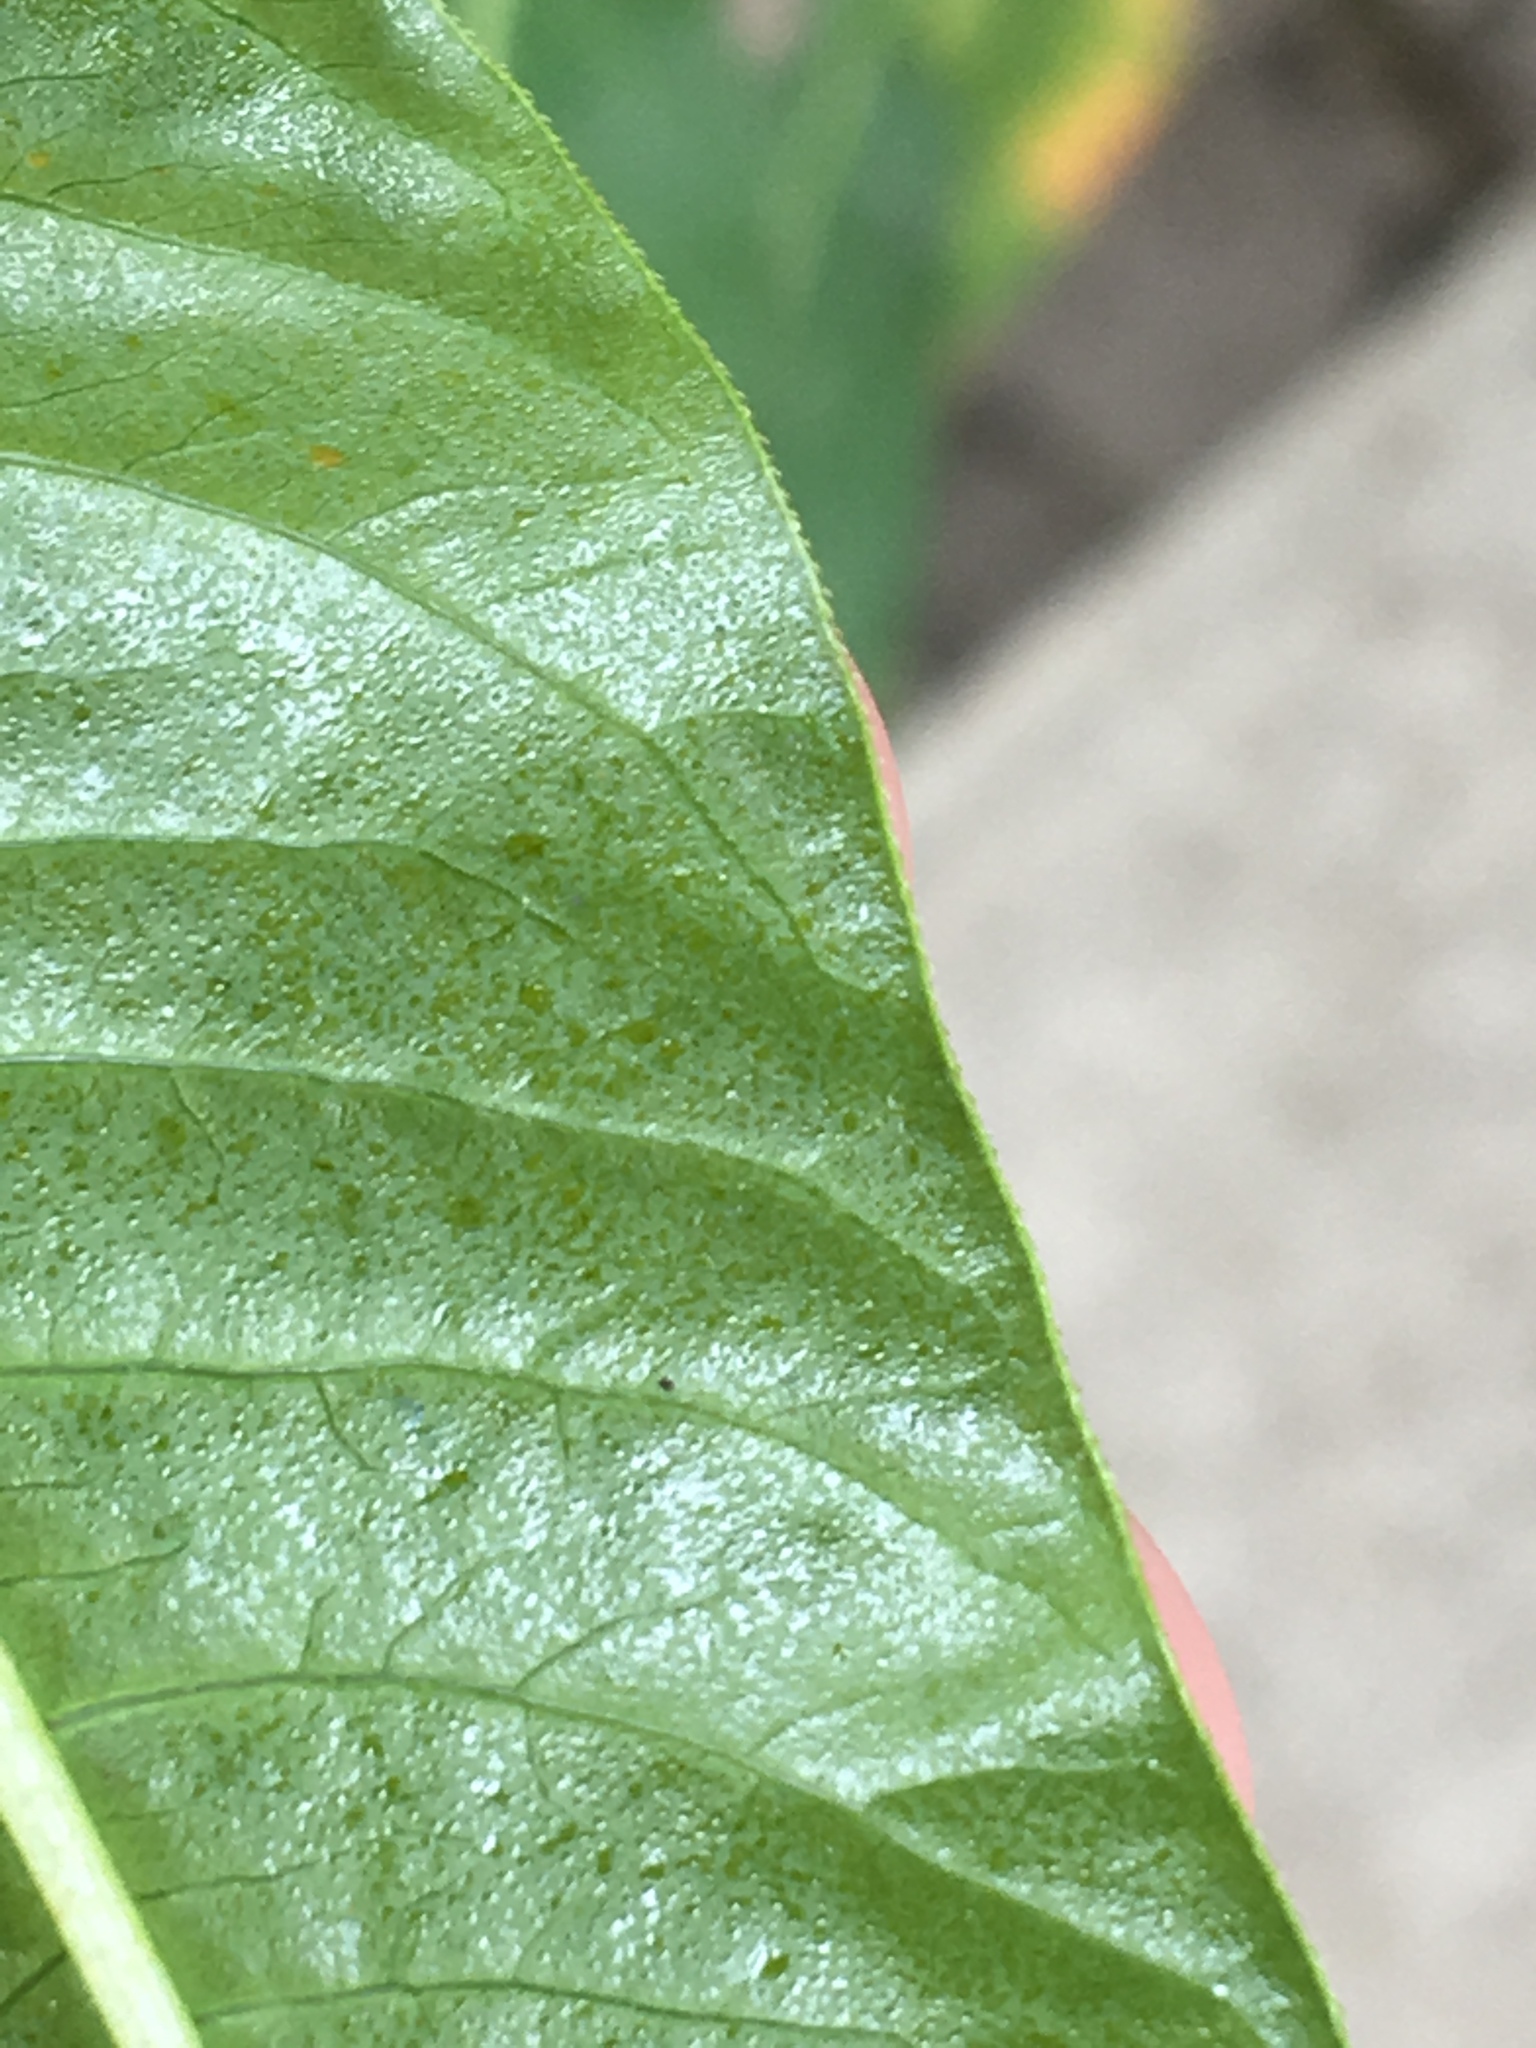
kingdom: Plantae
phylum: Tracheophyta
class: Magnoliopsida
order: Caryophyllales
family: Polygonaceae
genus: Persicaria
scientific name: Persicaria lapathifolia
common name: Curlytop knotweed
